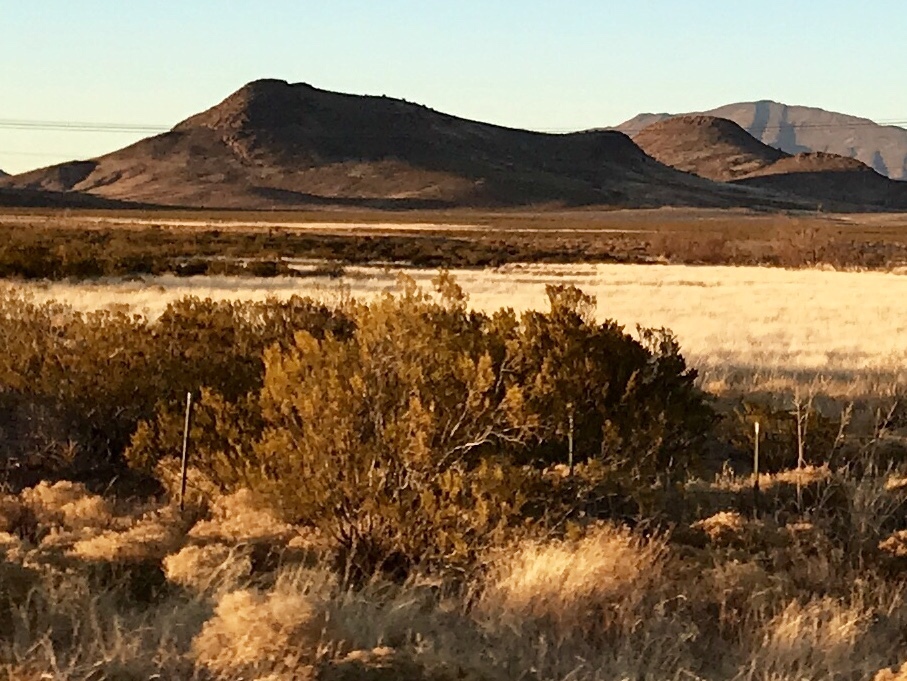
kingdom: Plantae
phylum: Tracheophyta
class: Magnoliopsida
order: Zygophyllales
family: Zygophyllaceae
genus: Larrea
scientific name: Larrea tridentata
